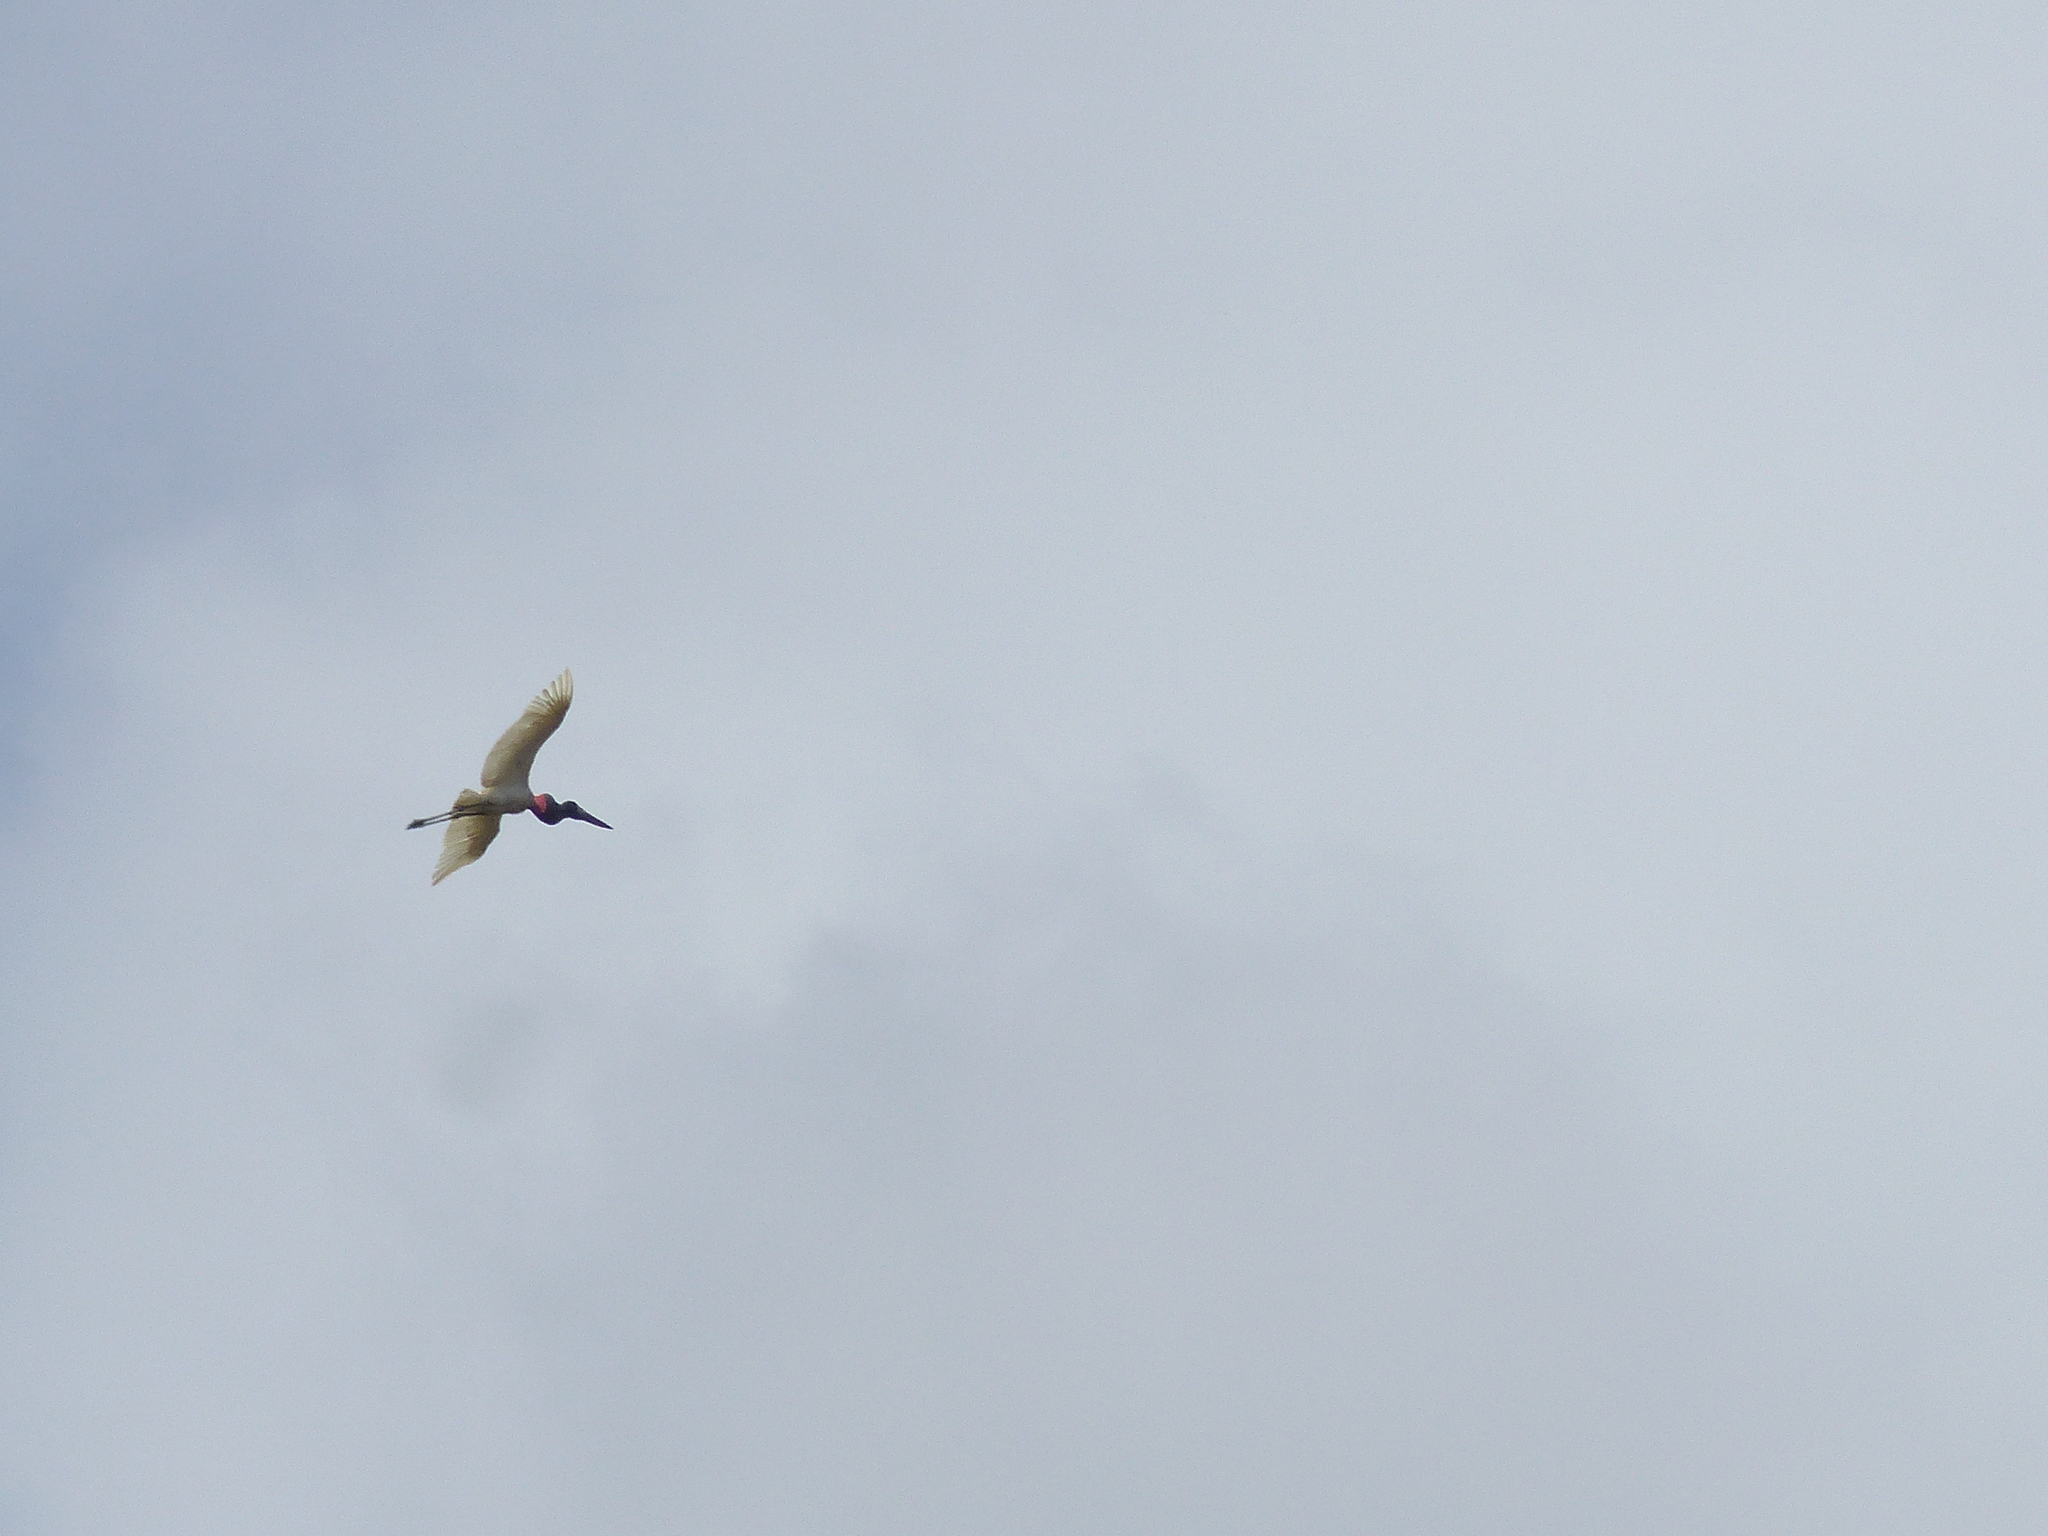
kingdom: Animalia
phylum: Chordata
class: Aves
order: Ciconiiformes
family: Ciconiidae
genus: Jabiru
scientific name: Jabiru mycteria
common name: Jabiru
